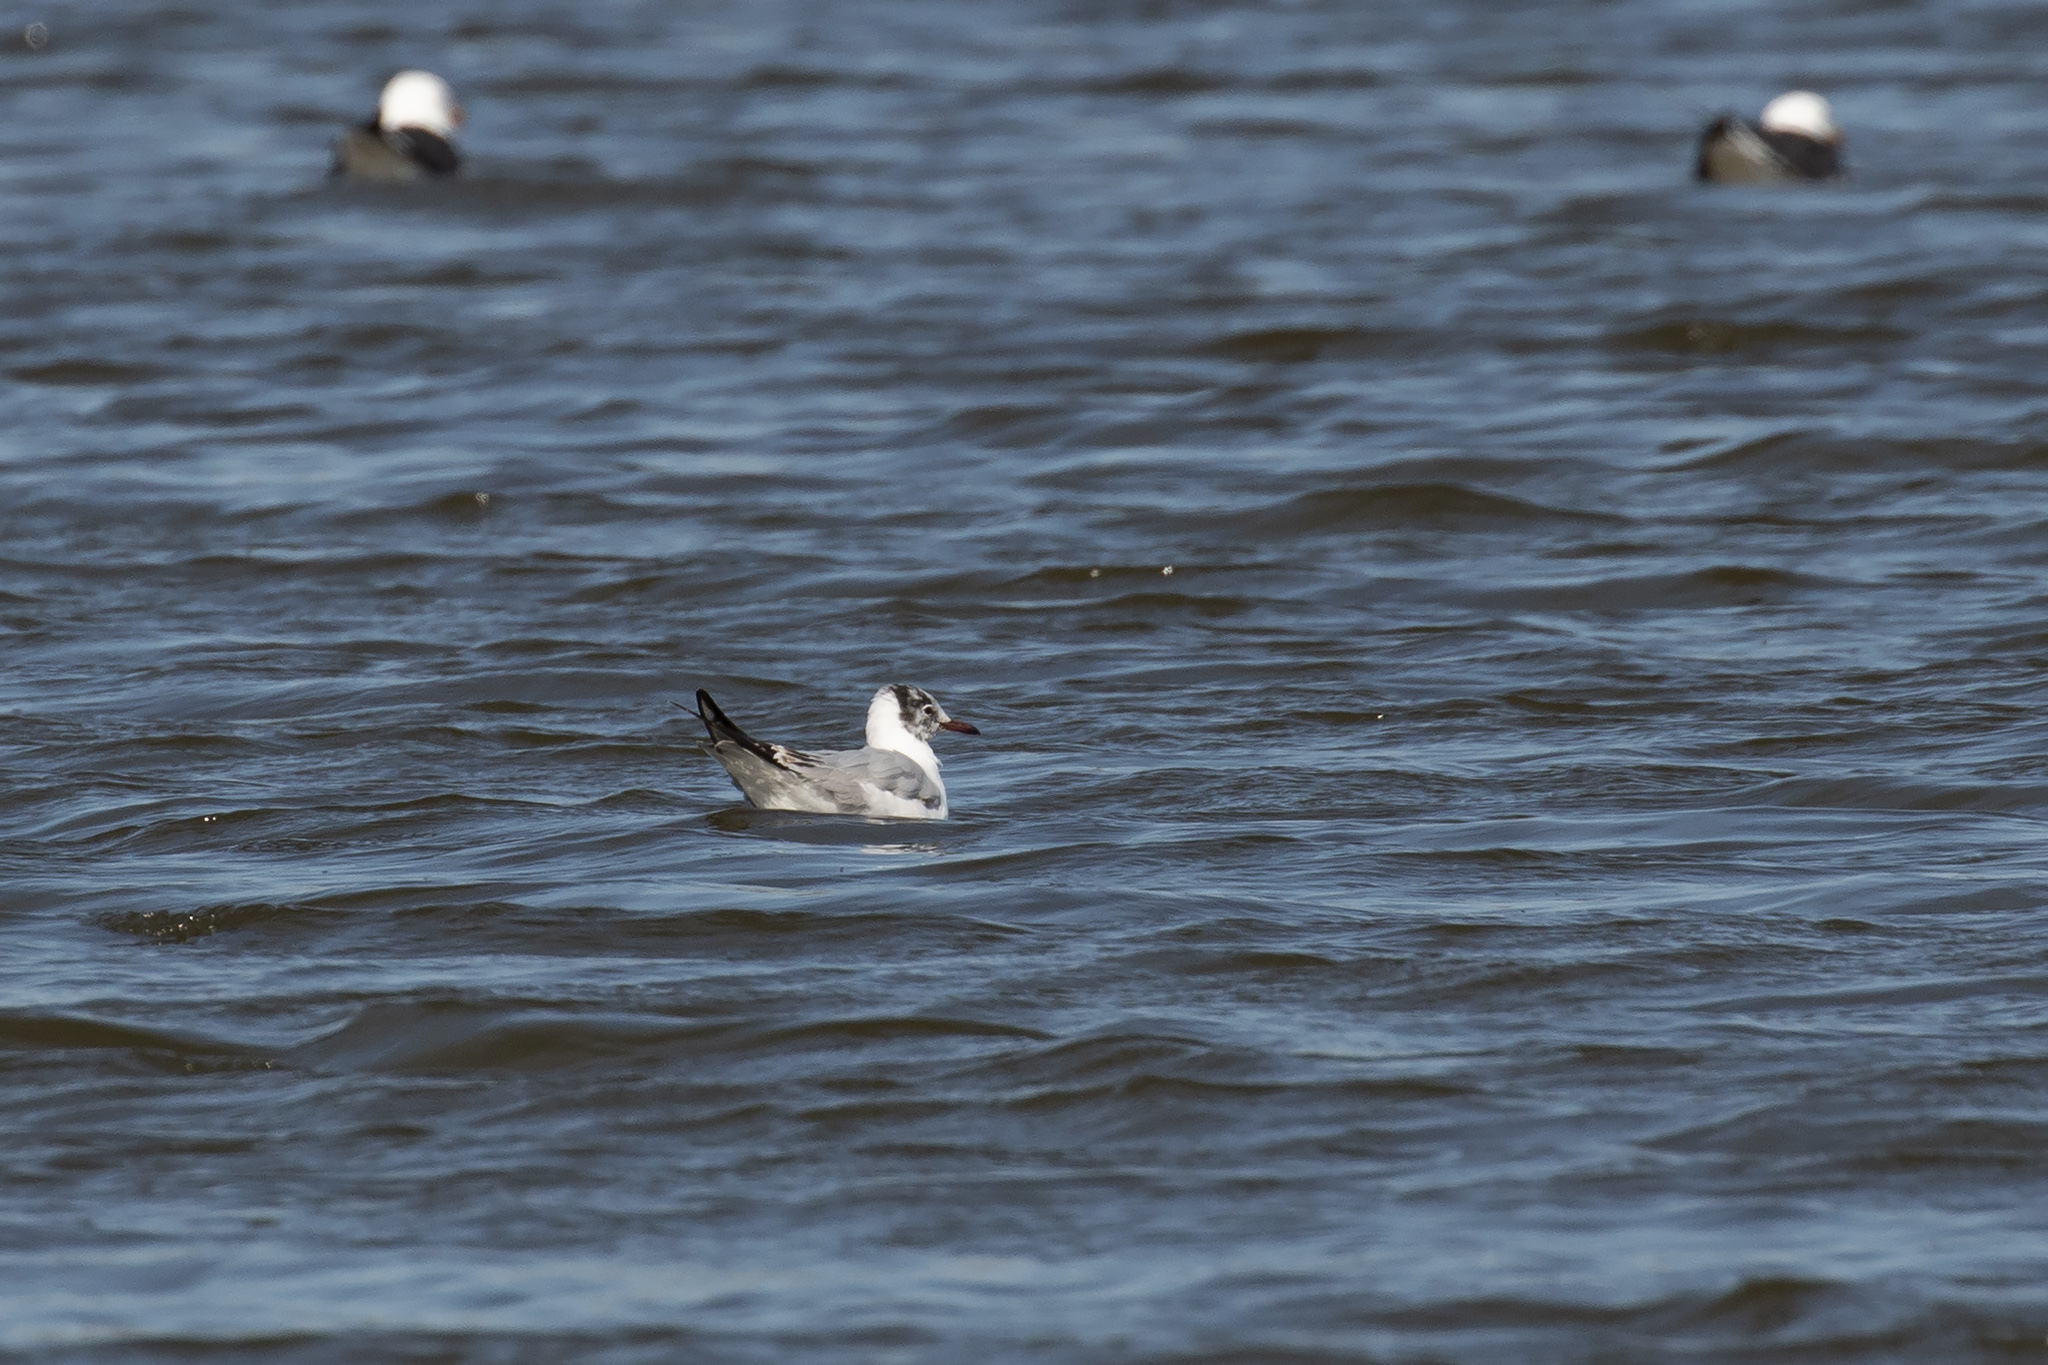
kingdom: Animalia
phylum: Chordata
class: Aves
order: Charadriiformes
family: Laridae
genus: Chroicocephalus
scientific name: Chroicocephalus ridibundus
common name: Black-headed gull
